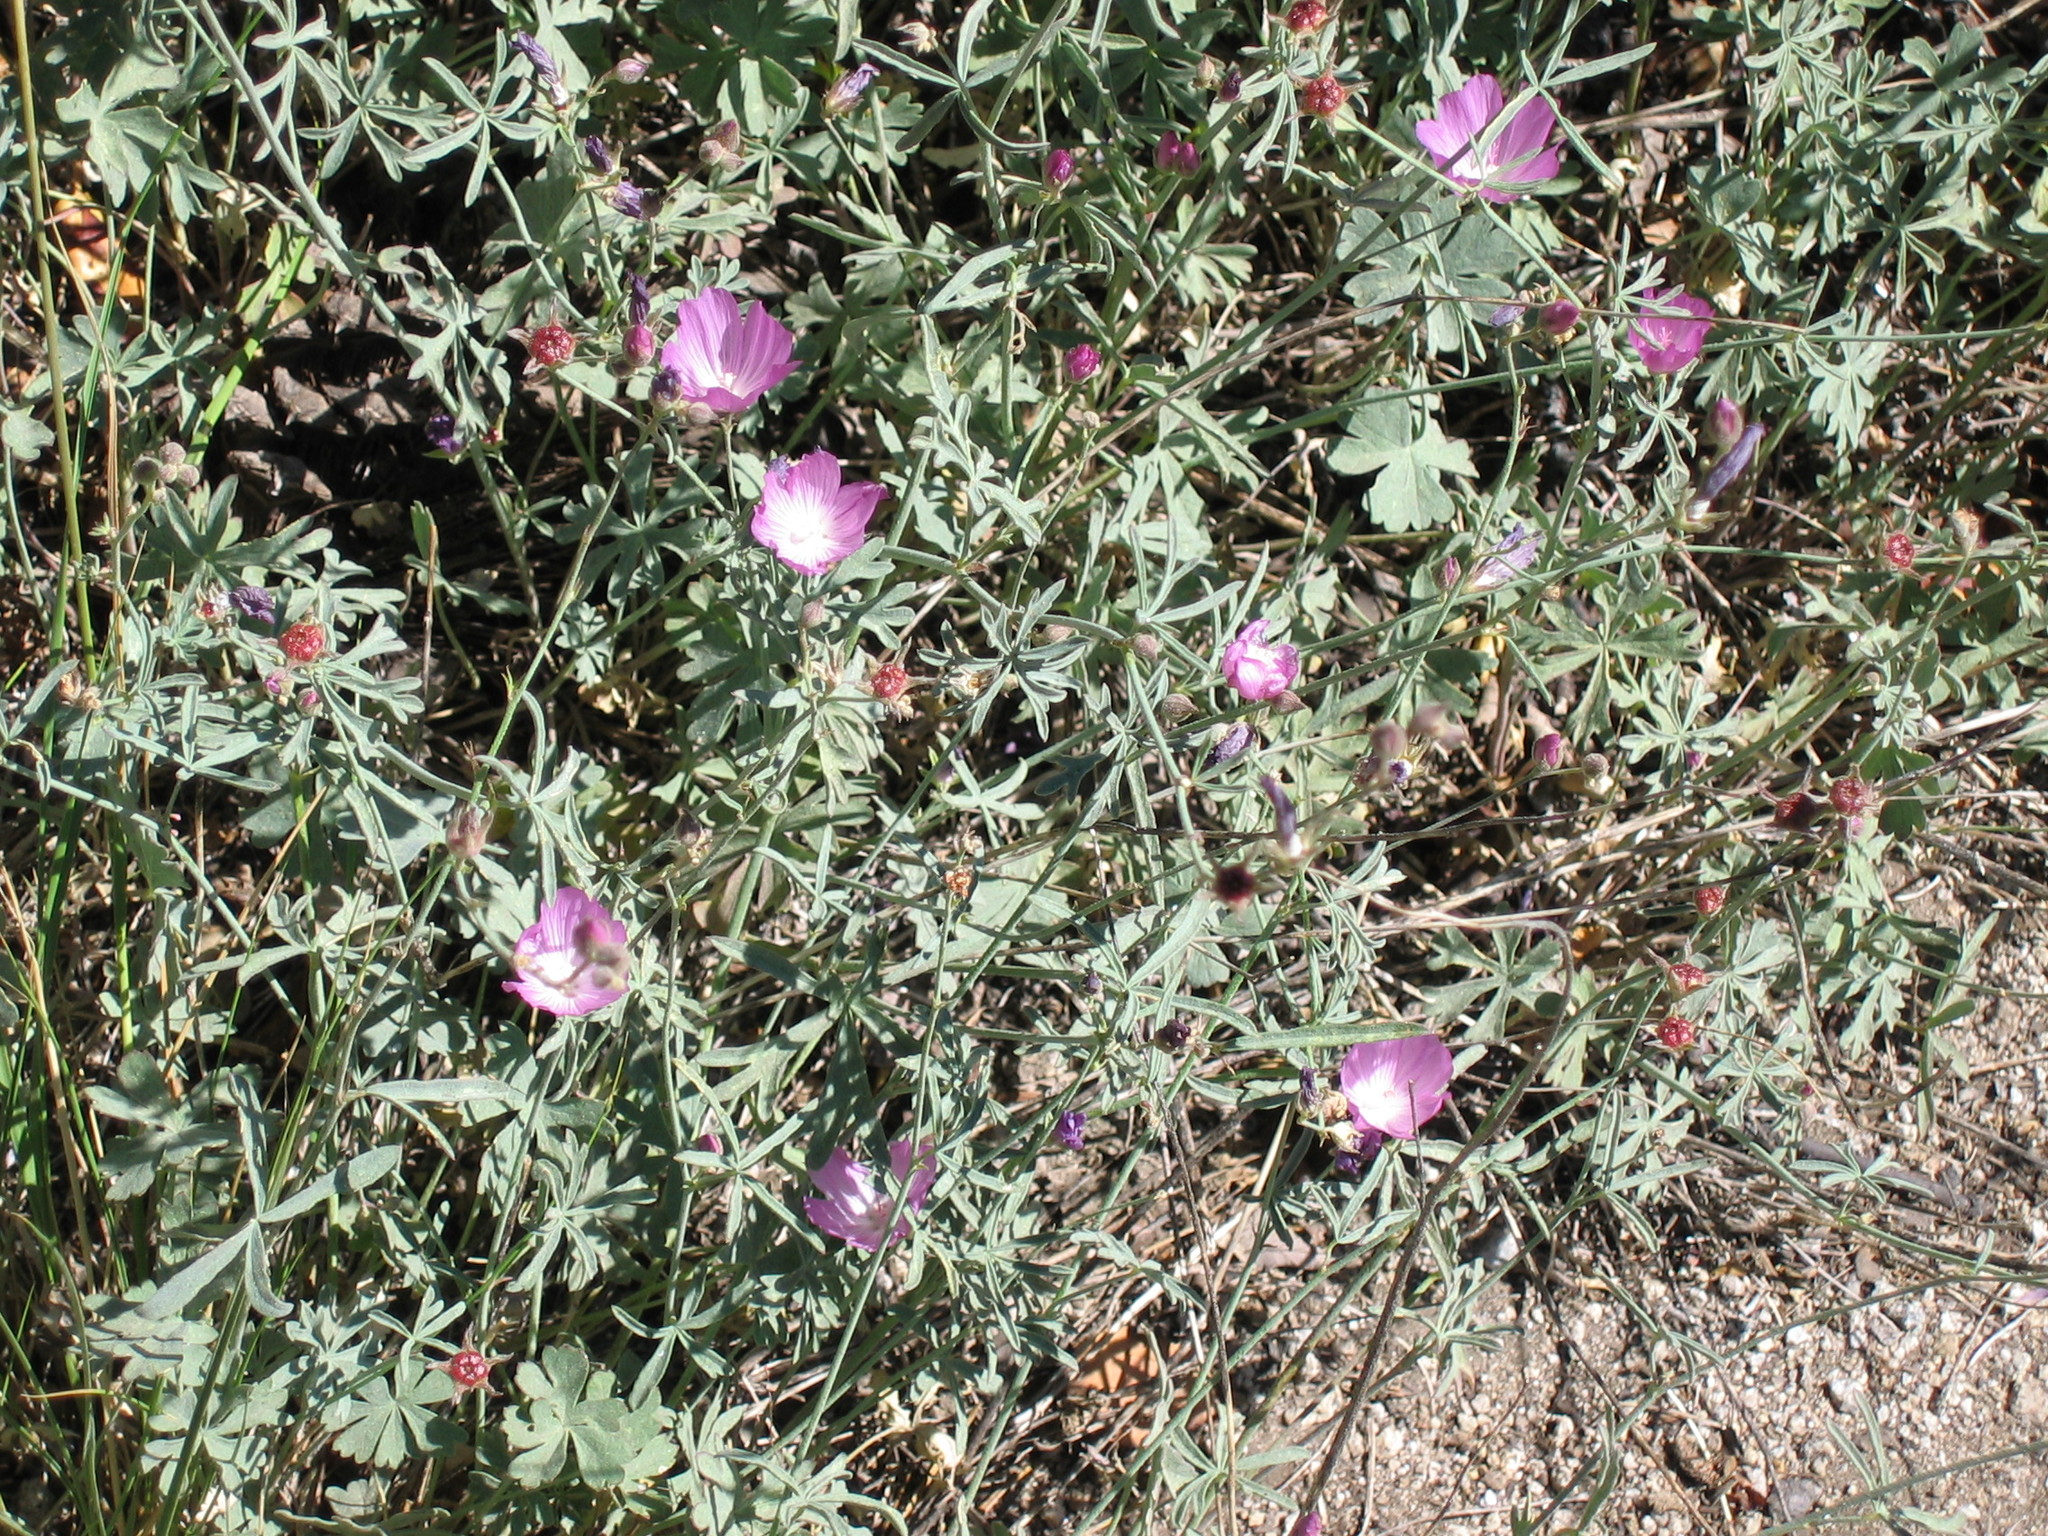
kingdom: Plantae
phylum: Tracheophyta
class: Magnoliopsida
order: Malvales
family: Malvaceae
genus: Sidalcea
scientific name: Sidalcea glaucescens
